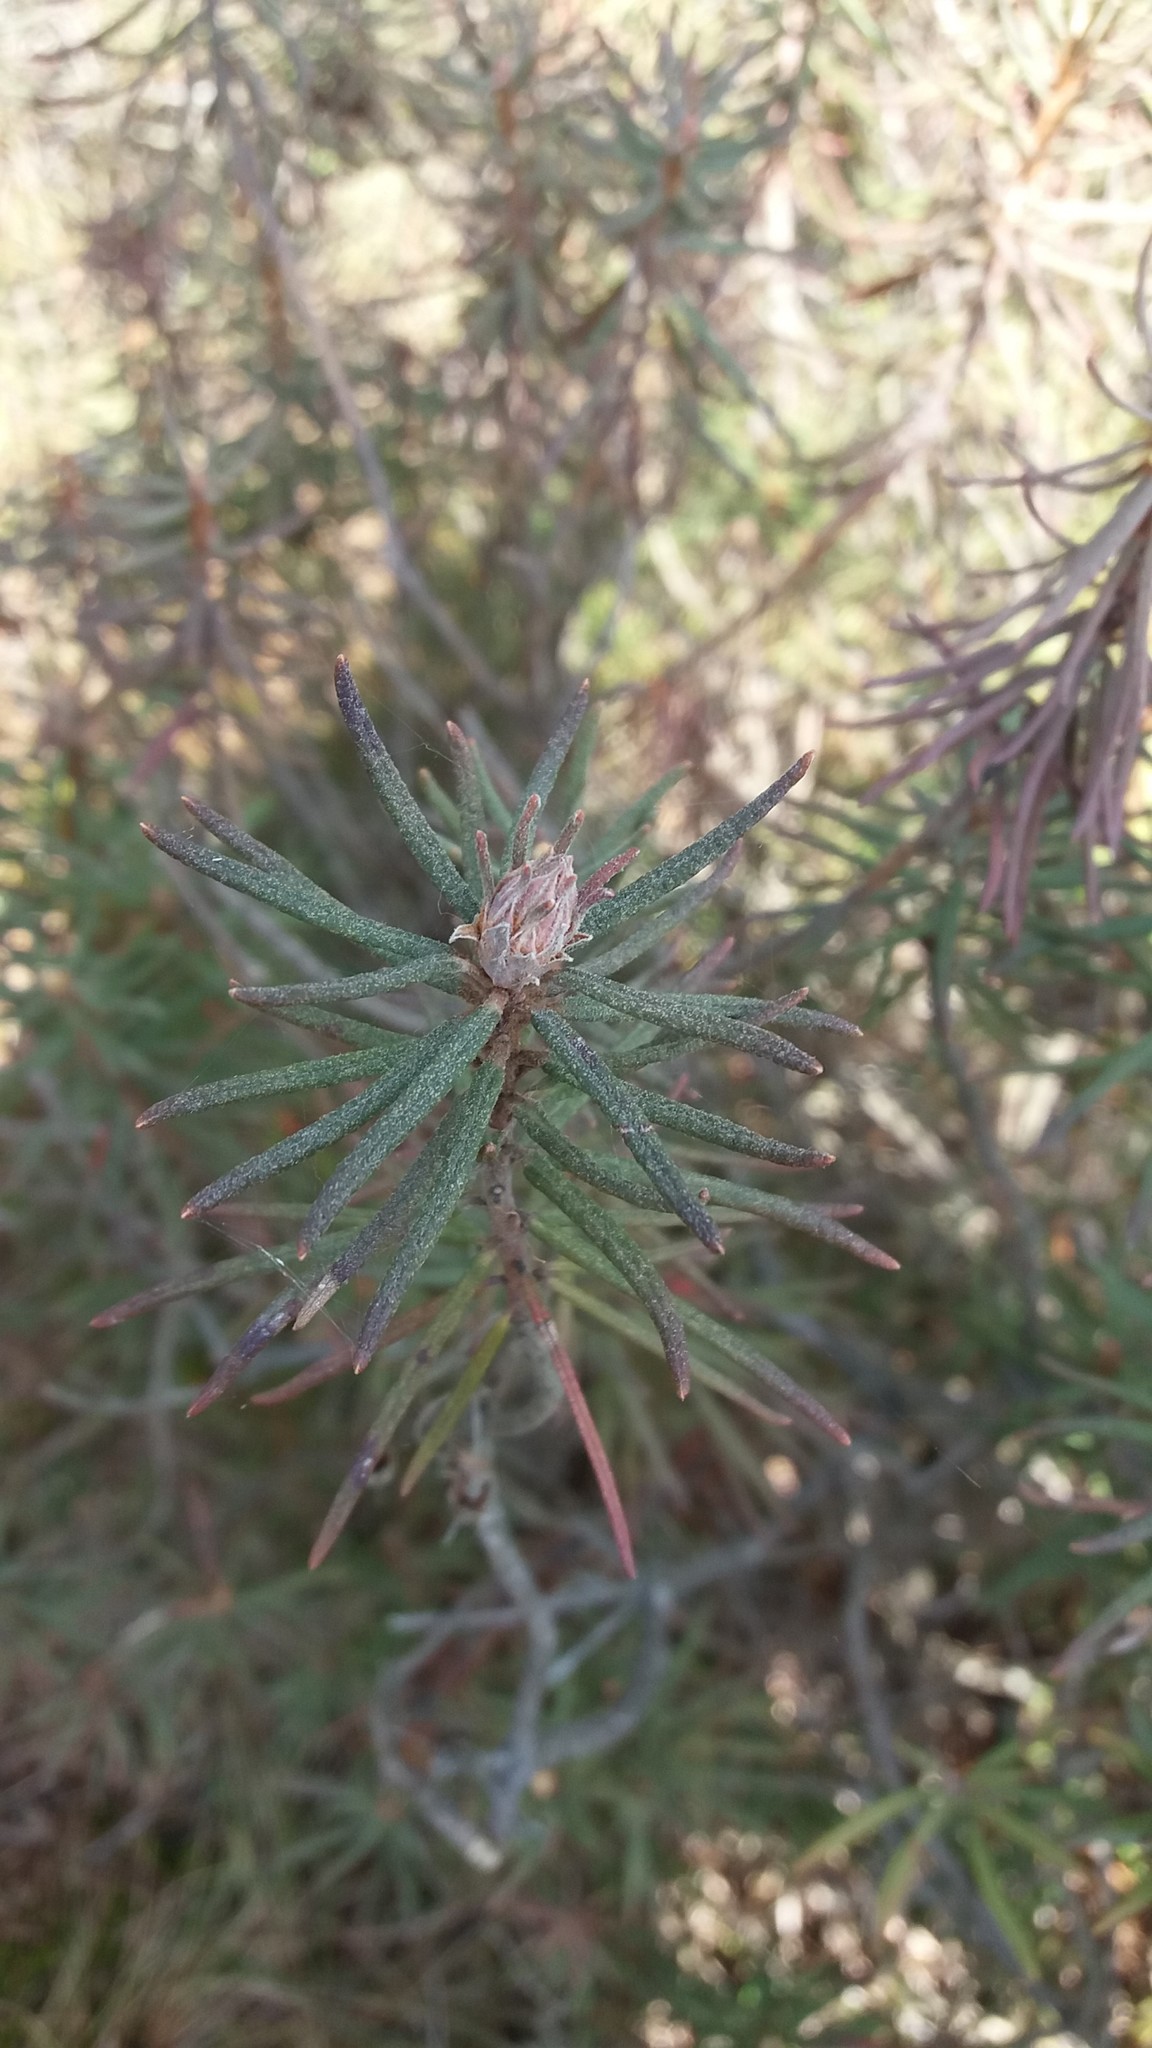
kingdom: Plantae
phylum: Tracheophyta
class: Magnoliopsida
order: Ericales
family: Ericaceae
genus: Rhododendron
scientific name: Rhododendron tomentosum
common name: Marsh labrador tea
